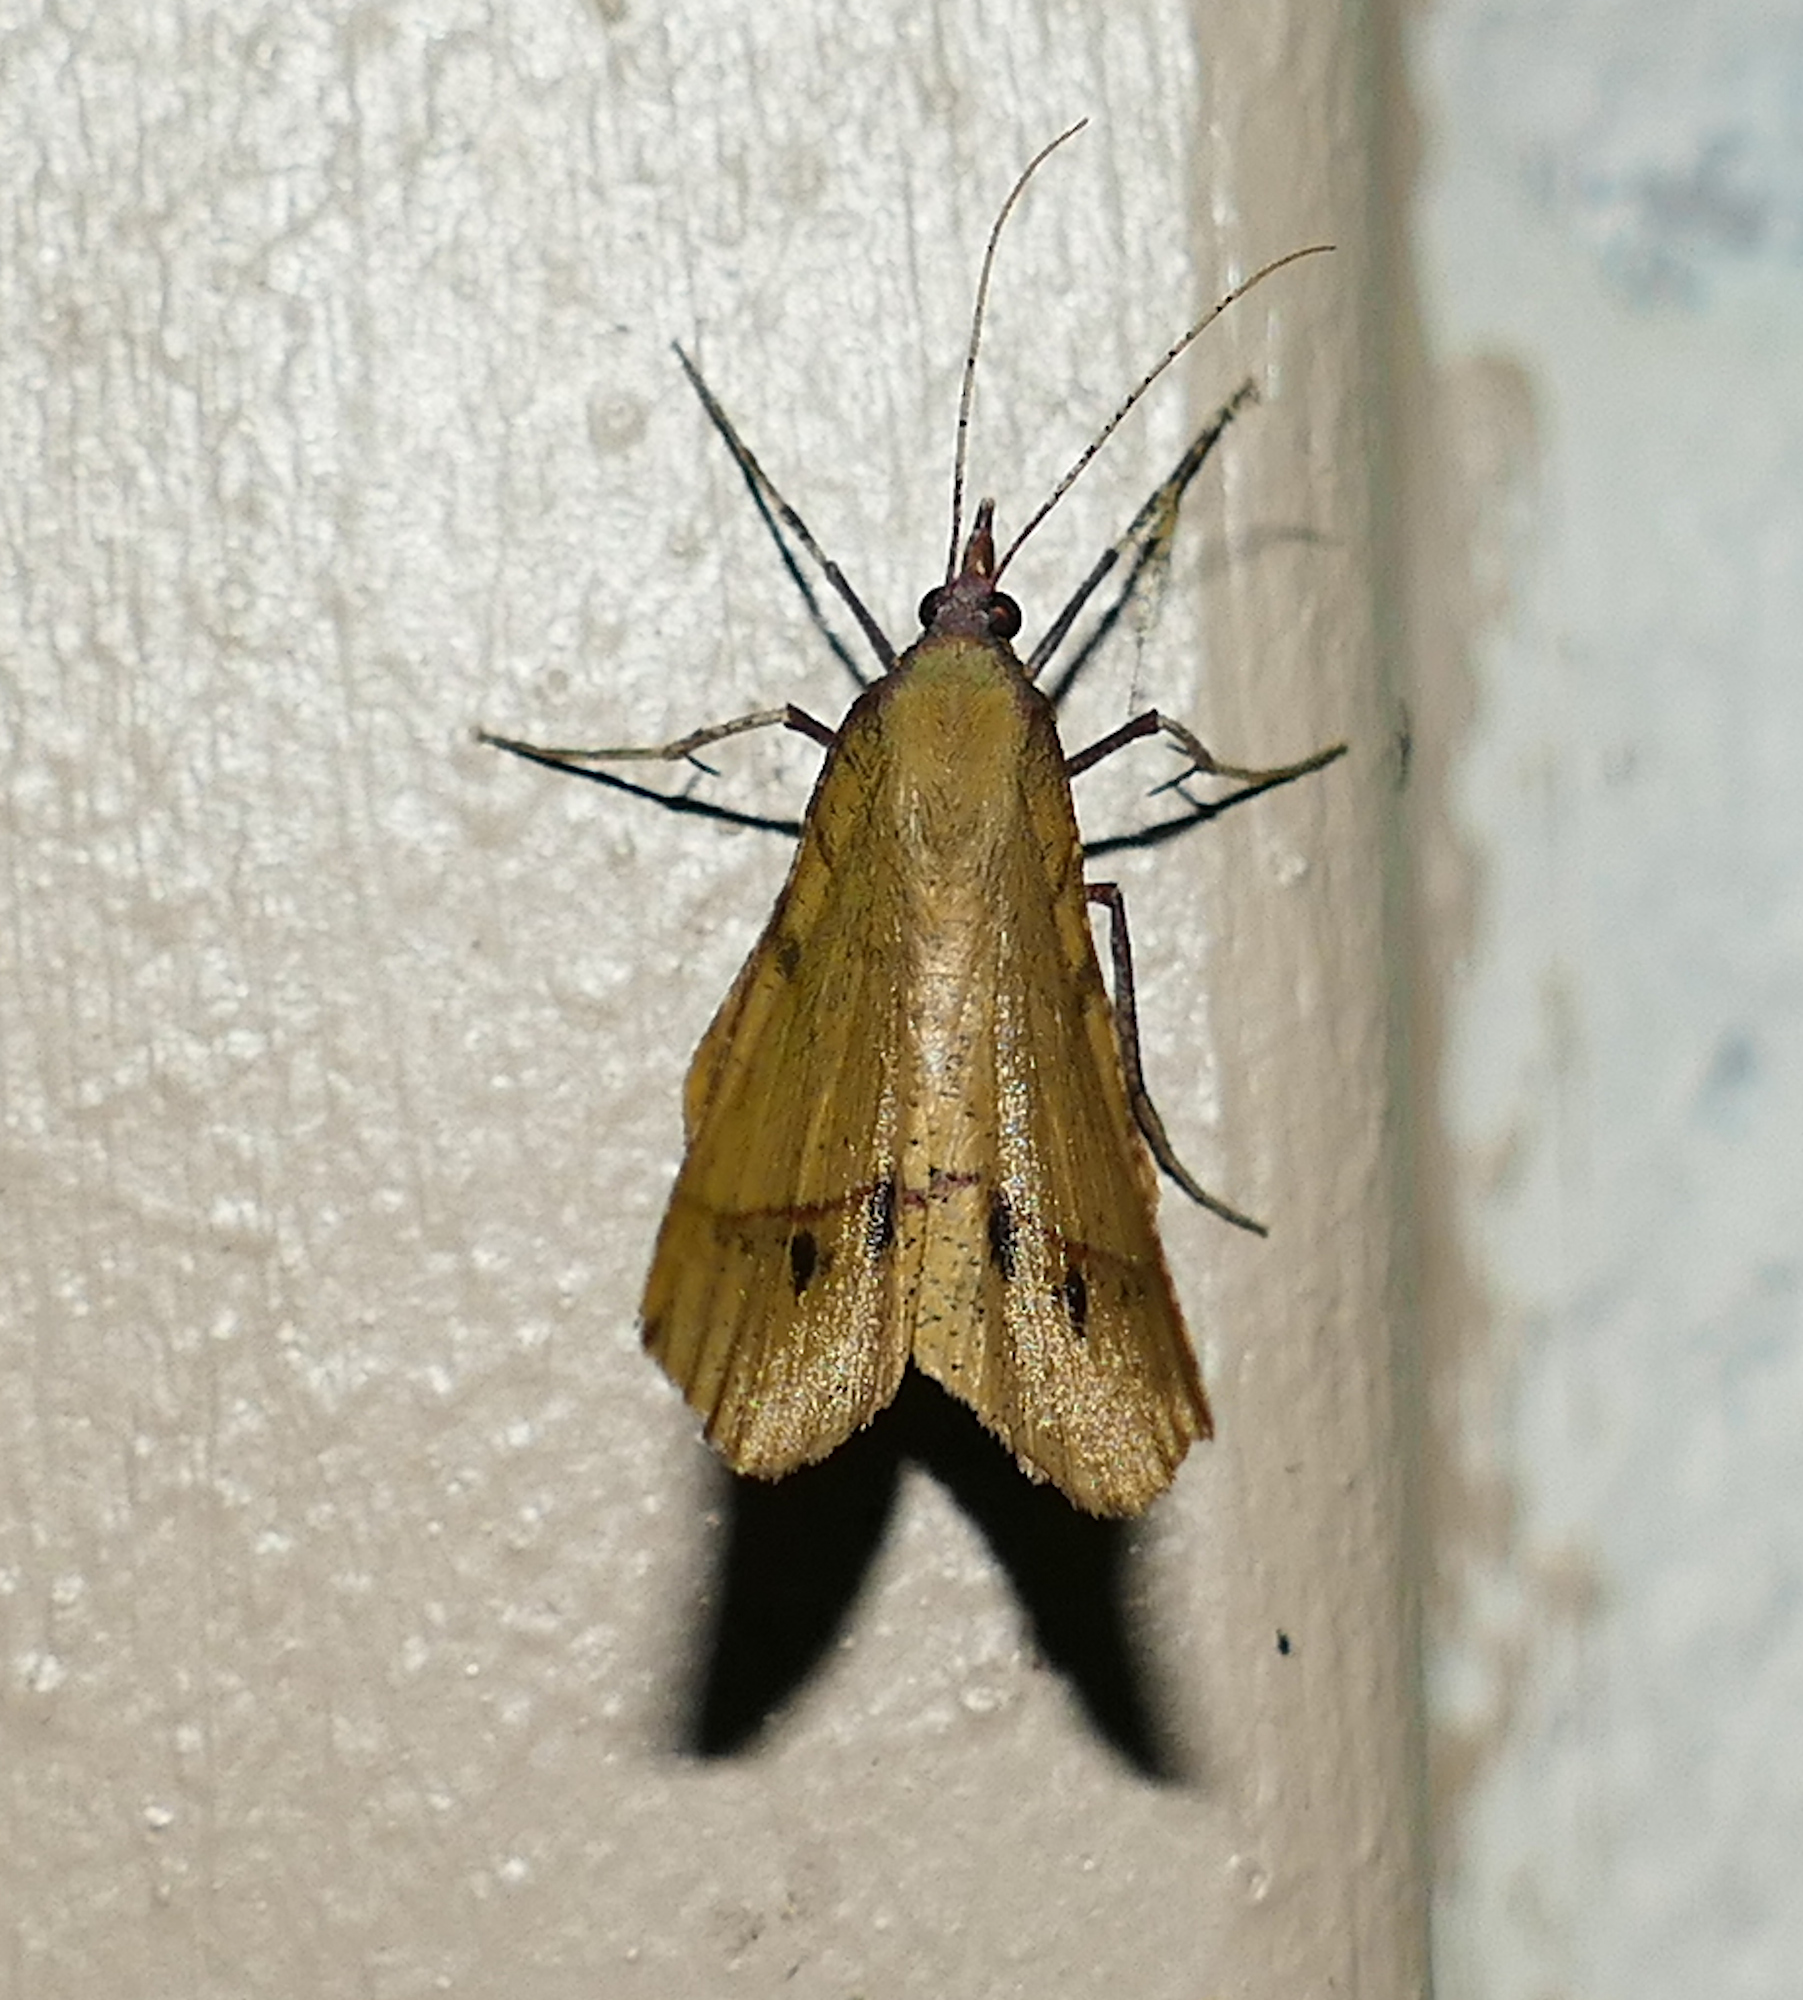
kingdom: Animalia
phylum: Arthropoda
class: Insecta
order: Lepidoptera
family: Geometridae
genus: Erastria
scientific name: Erastria cruentaria
